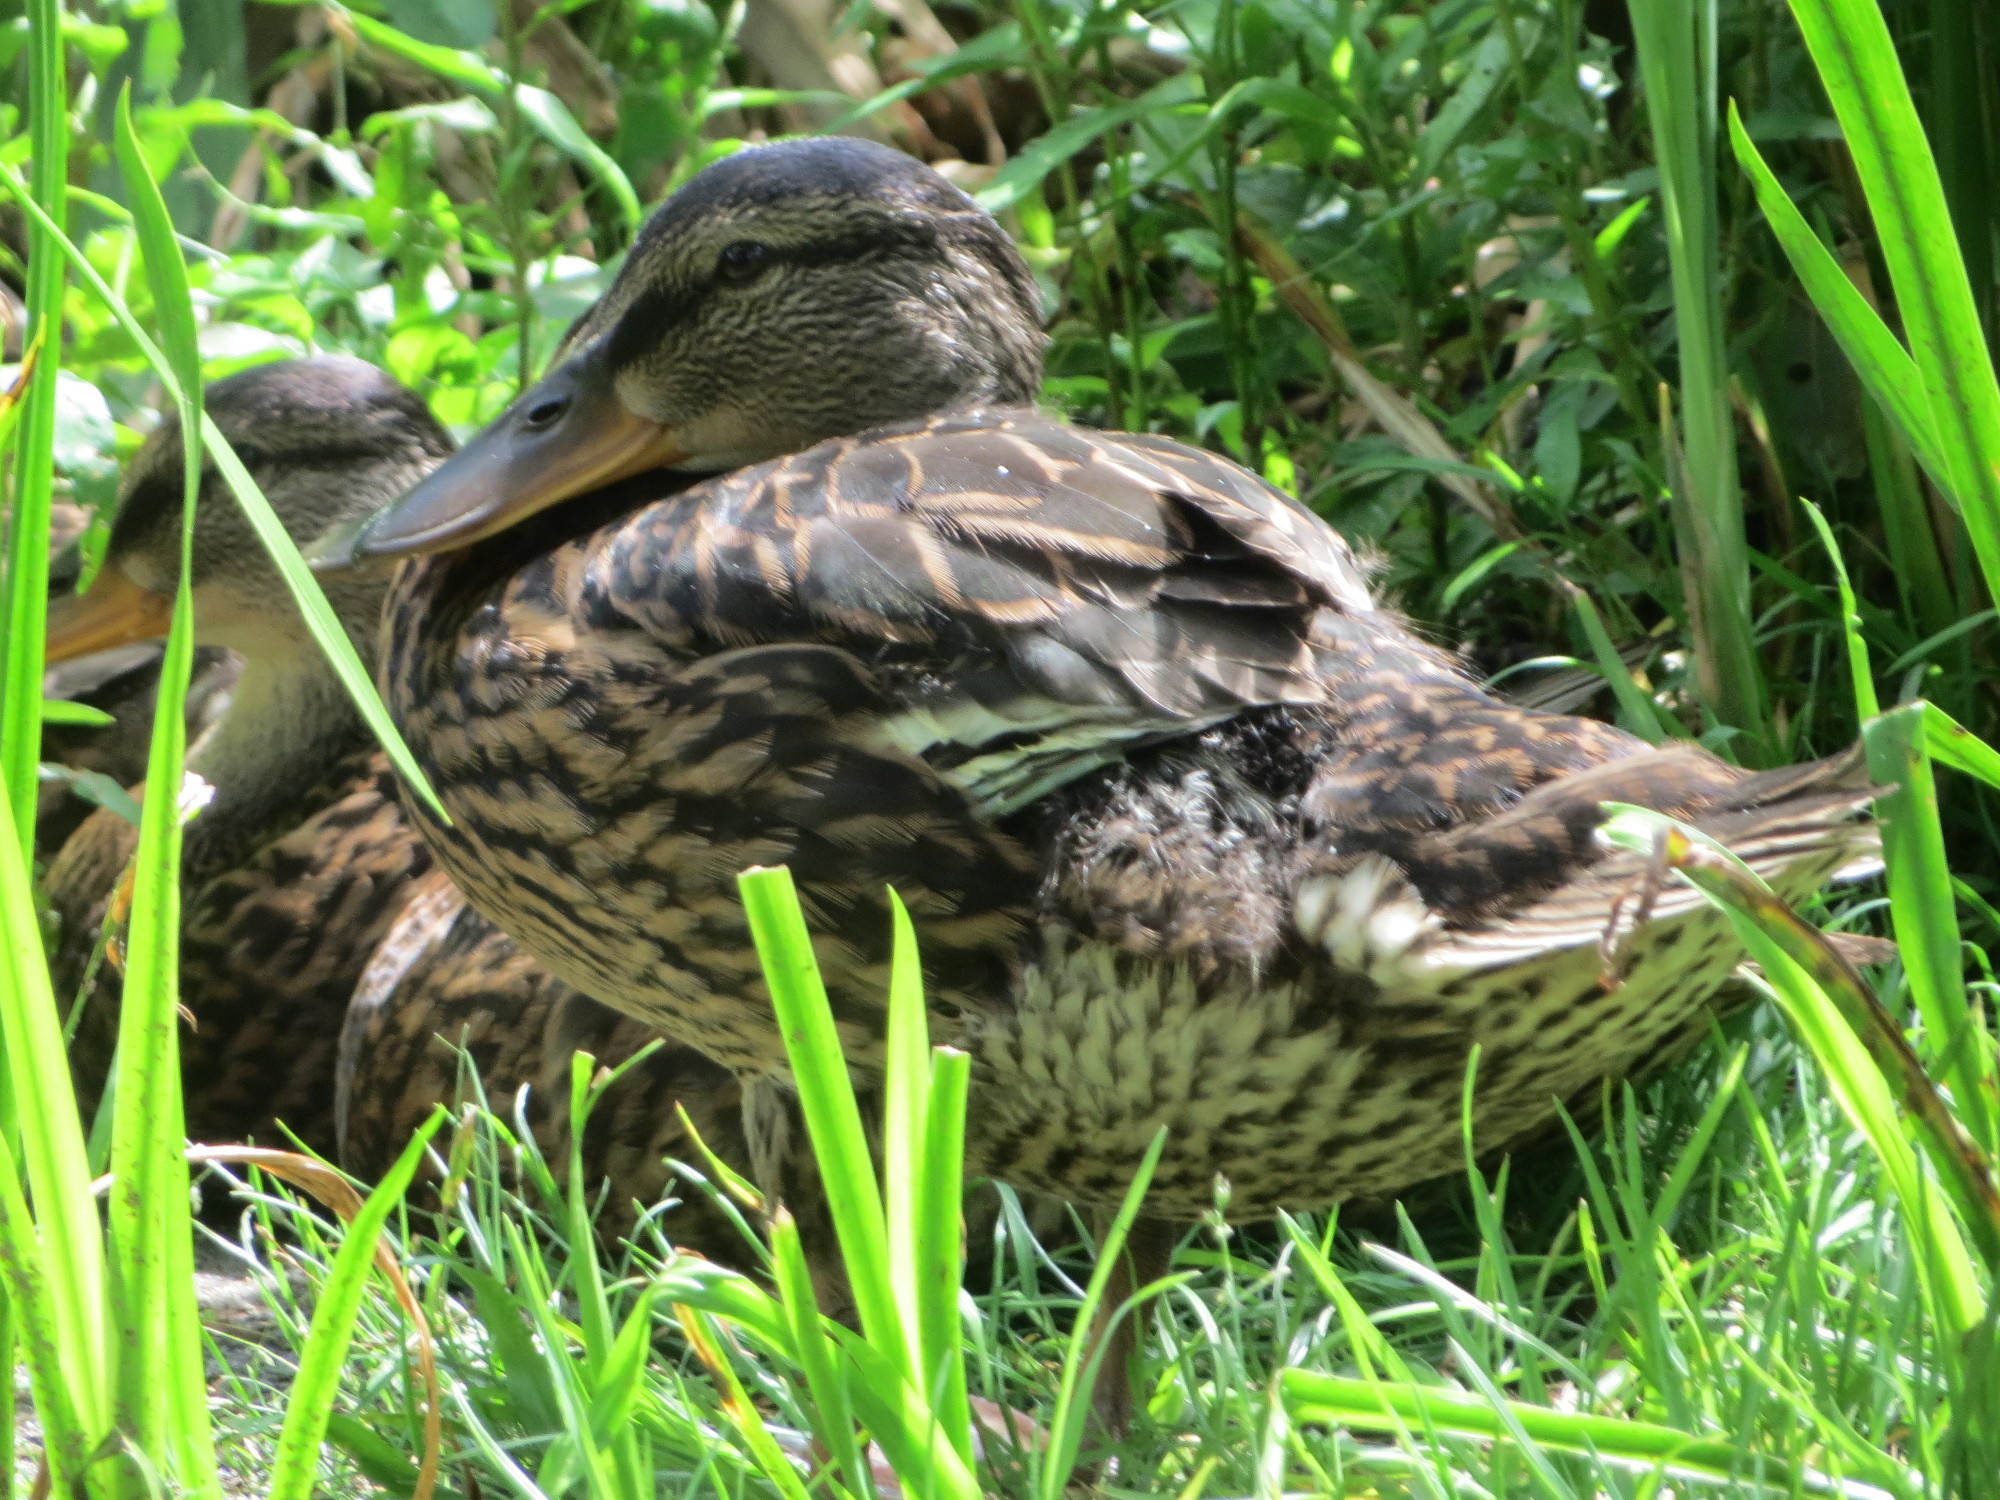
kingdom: Animalia
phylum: Chordata
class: Aves
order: Anseriformes
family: Anatidae
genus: Anas
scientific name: Anas platyrhynchos
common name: Mallard
